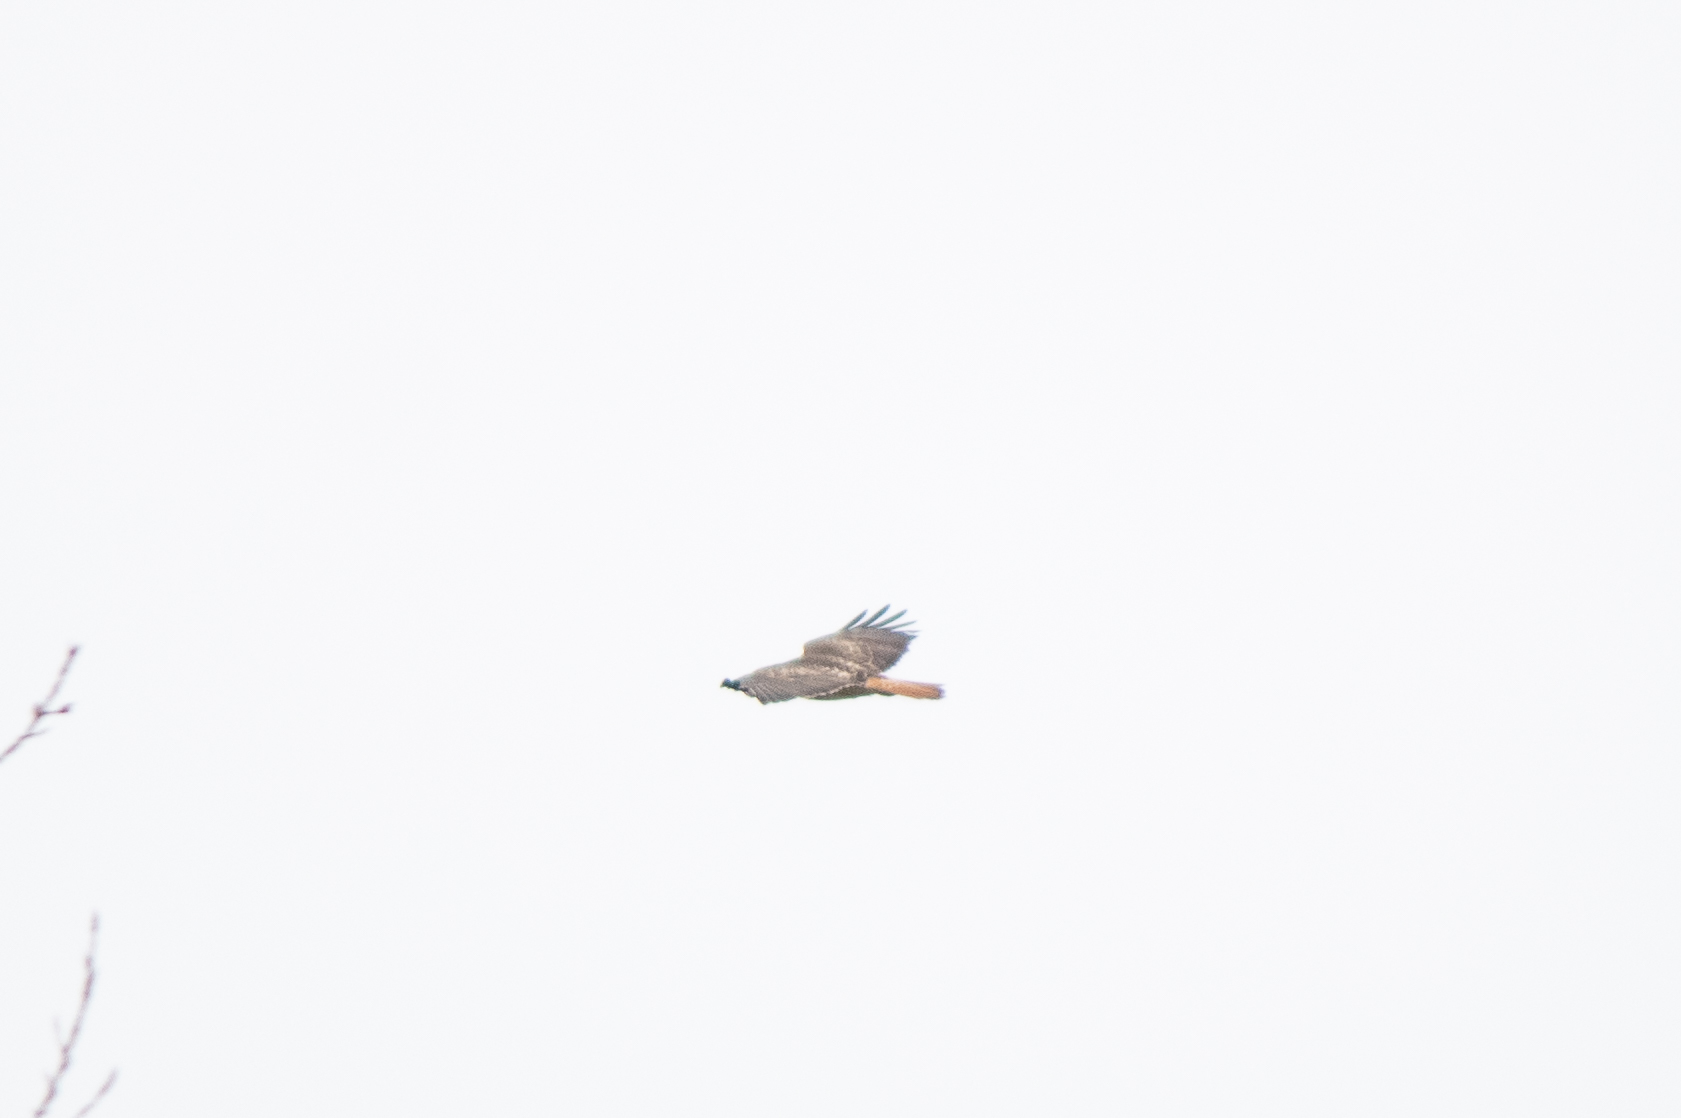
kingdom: Animalia
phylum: Chordata
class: Aves
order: Accipitriformes
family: Accipitridae
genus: Buteo
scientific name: Buteo jamaicensis
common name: Red-tailed hawk
